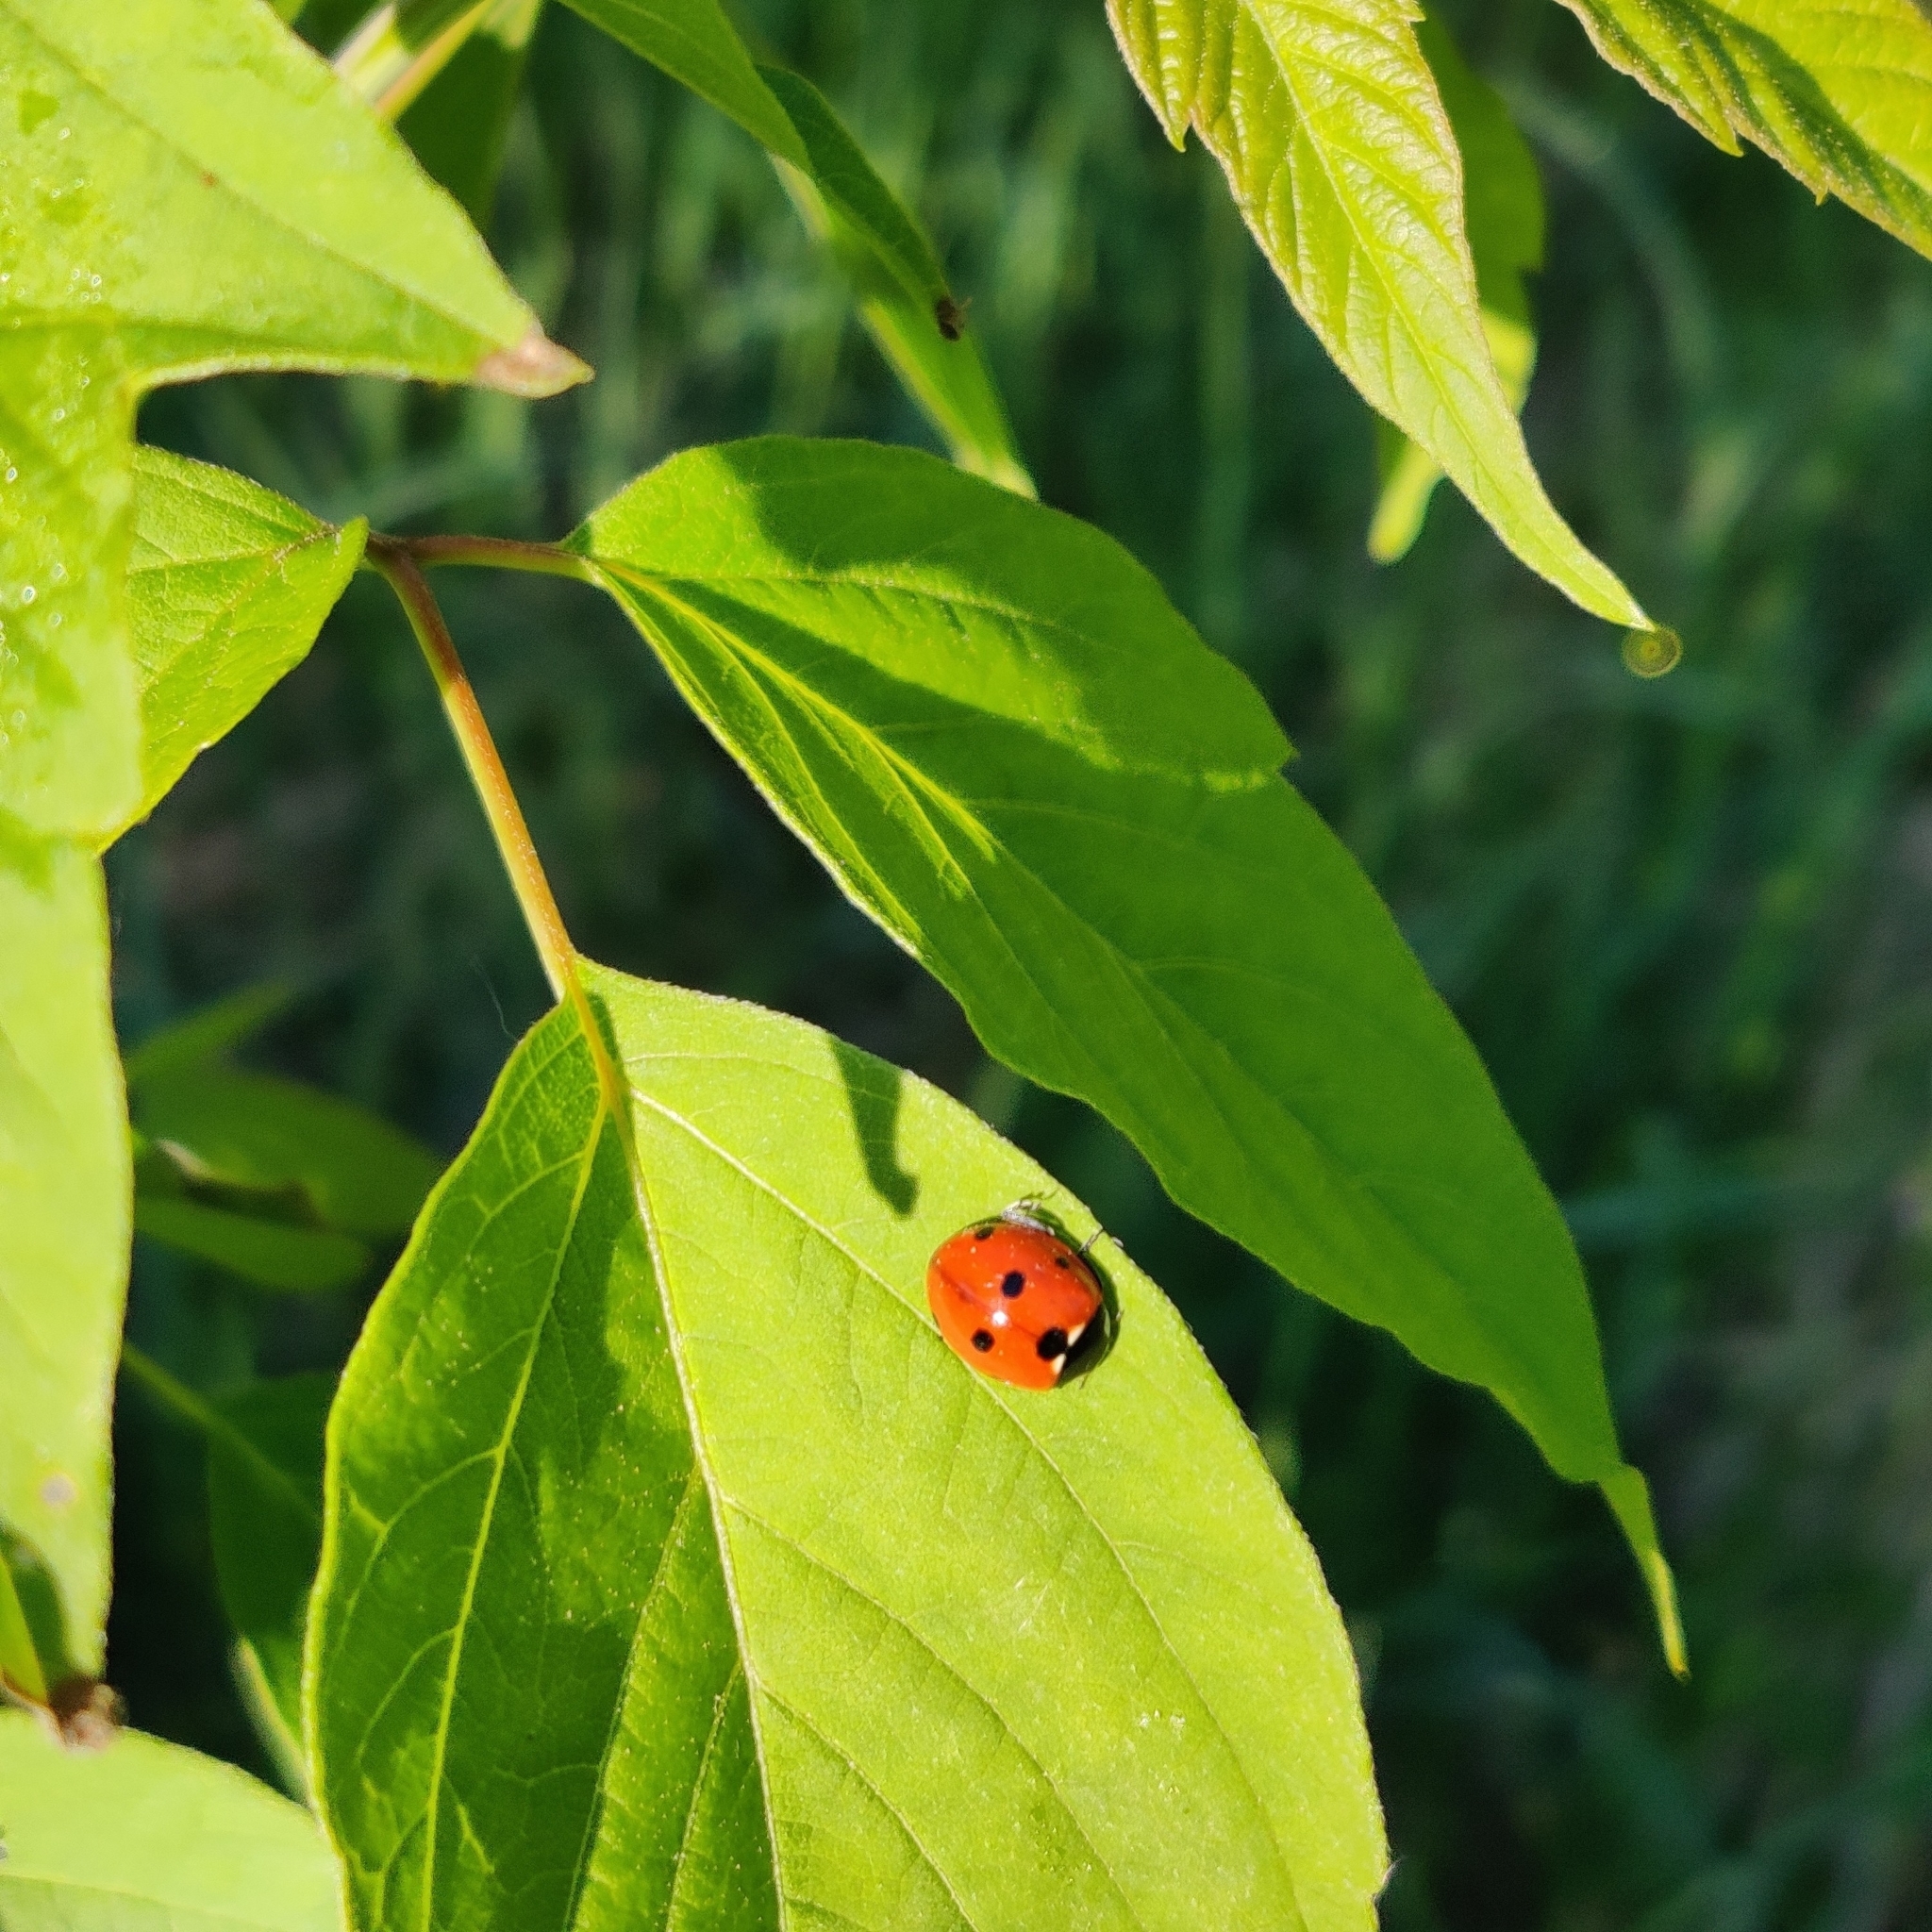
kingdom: Animalia
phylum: Arthropoda
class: Insecta
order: Coleoptera
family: Coccinellidae
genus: Coccinella
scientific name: Coccinella septempunctata
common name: Sevenspotted lady beetle
